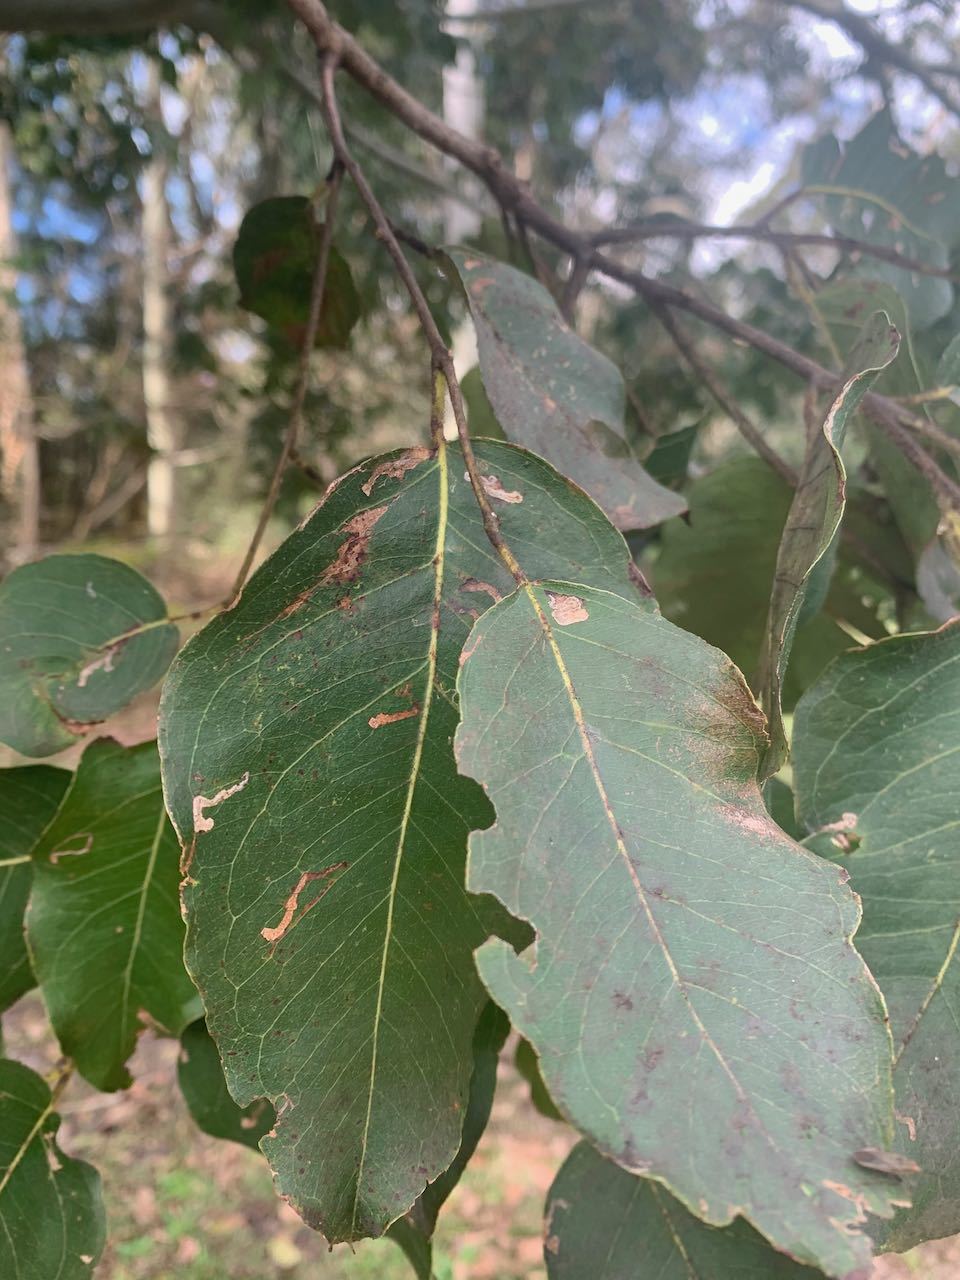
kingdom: Plantae
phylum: Tracheophyta
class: Magnoliopsida
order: Myrtales
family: Myrtaceae
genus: Corymbia
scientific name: Corymbia torelliana
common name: Cadaghi
